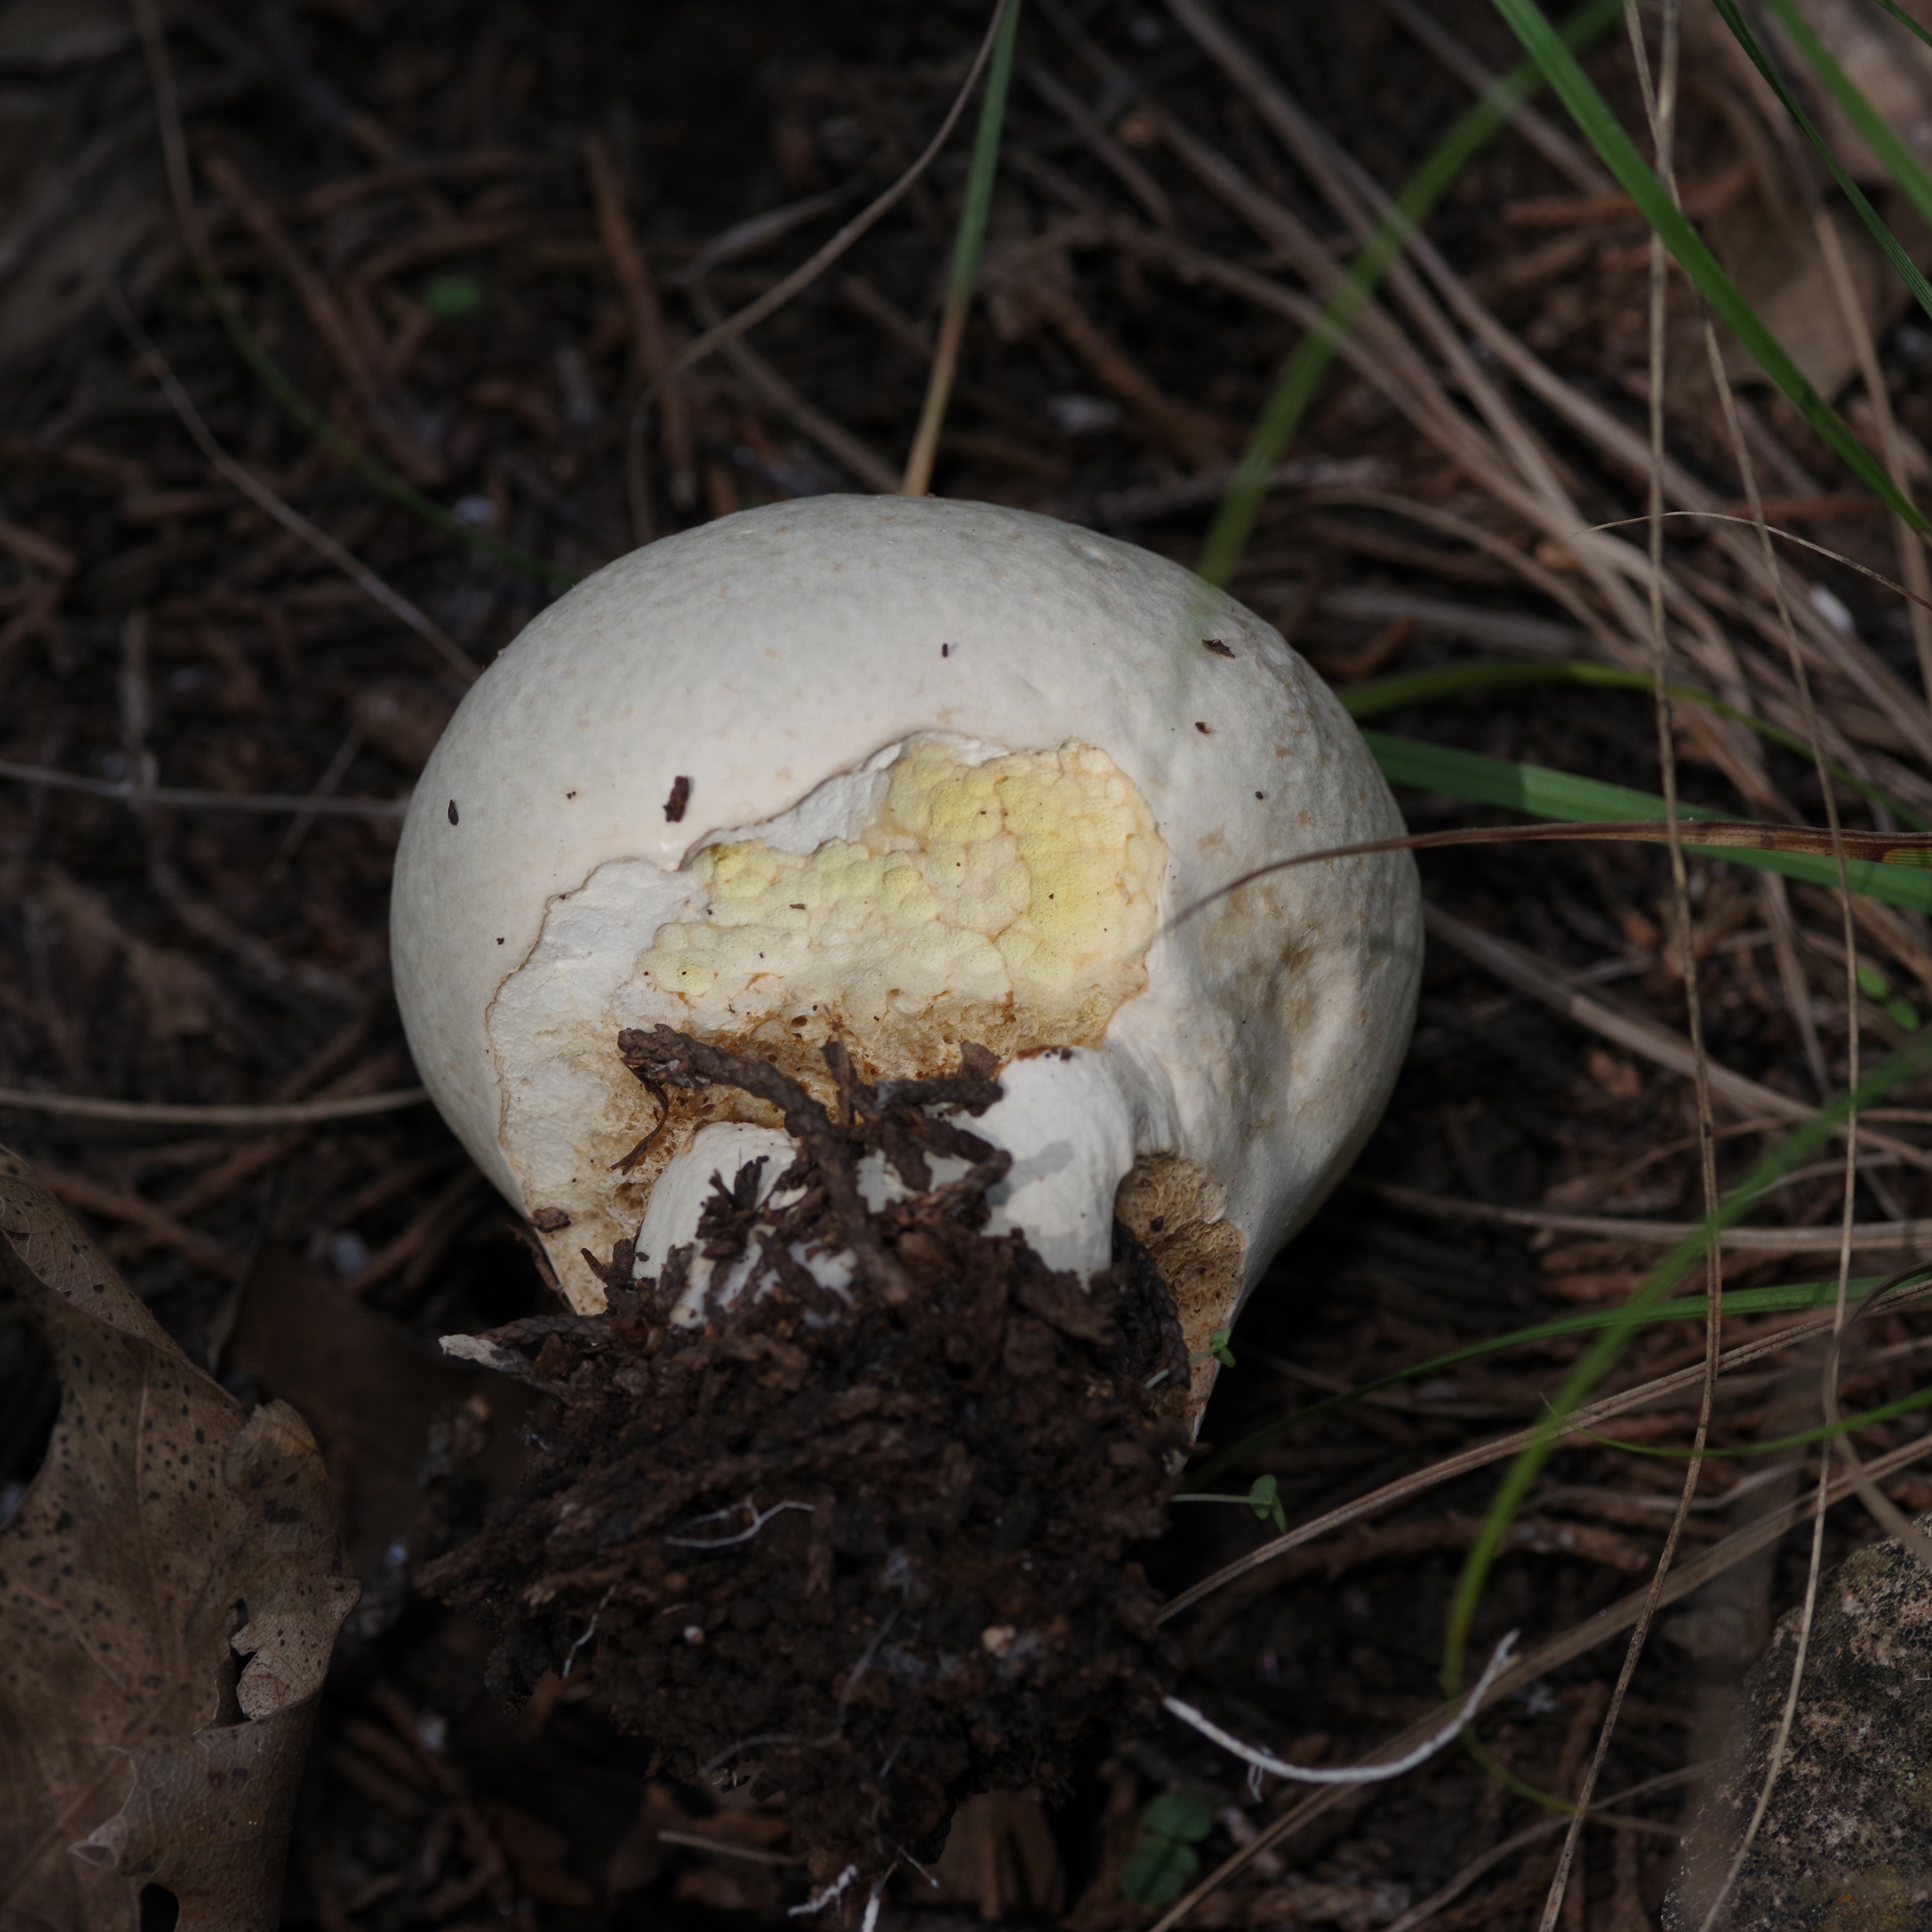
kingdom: Fungi
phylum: Basidiomycota
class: Agaricomycetes
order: Agaricales
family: Lycoperdaceae
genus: Calvatia
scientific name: Calvatia craniiformis
